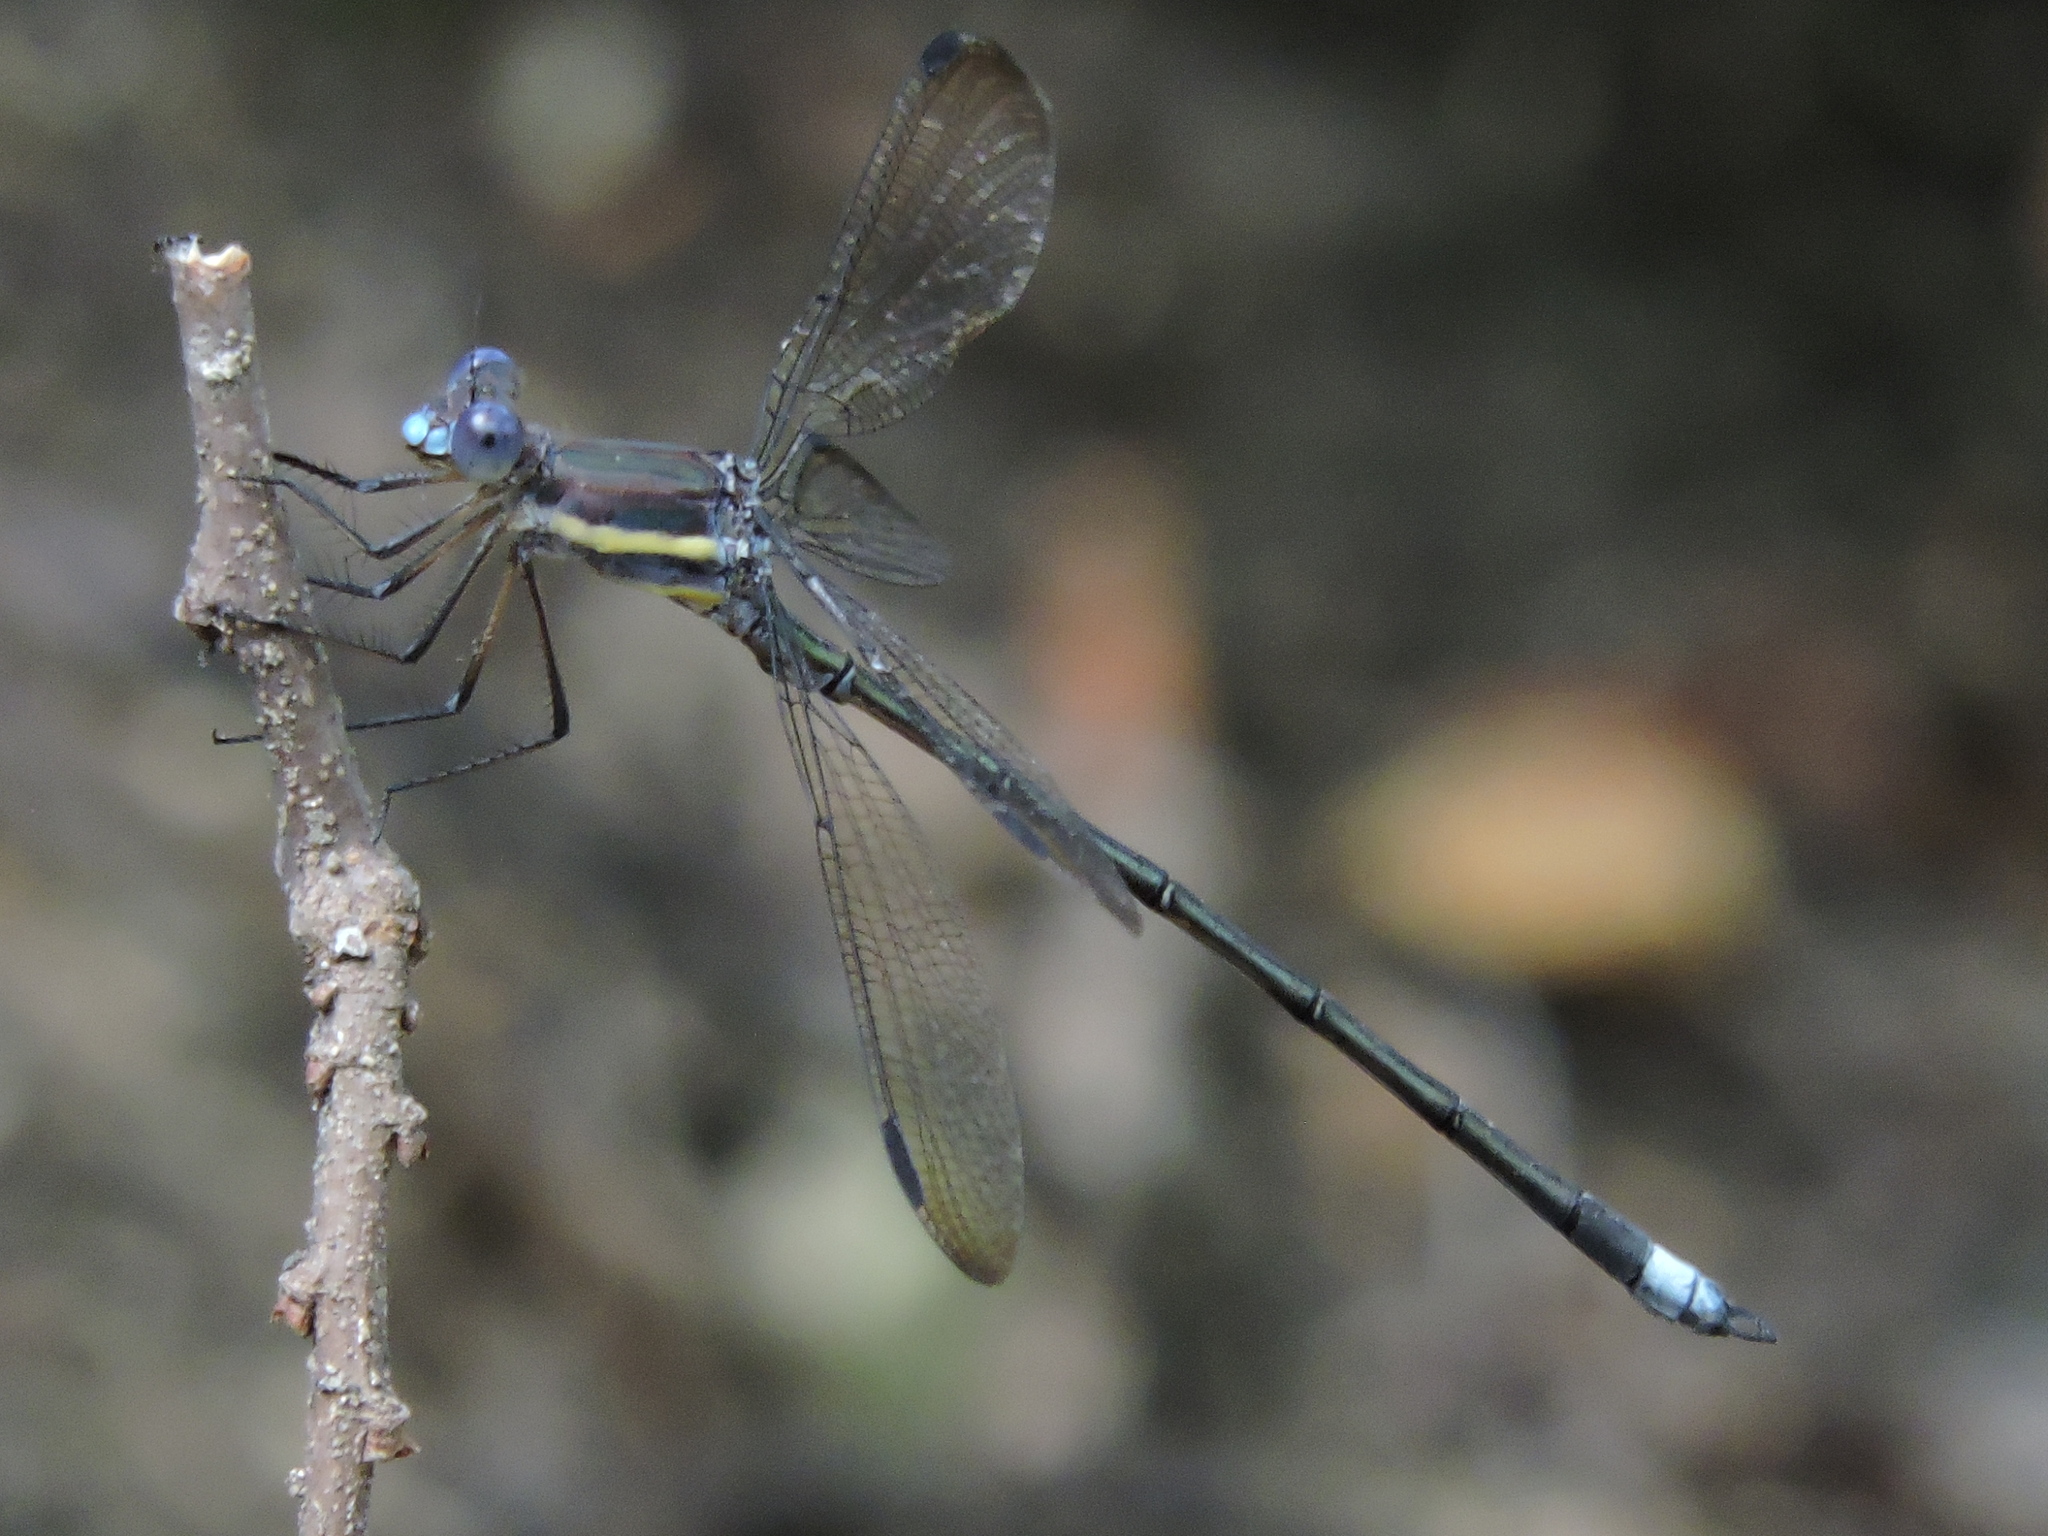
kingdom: Animalia
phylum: Arthropoda
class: Insecta
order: Odonata
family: Lestidae
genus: Archilestes
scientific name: Archilestes grandis
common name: Great spreadwing
